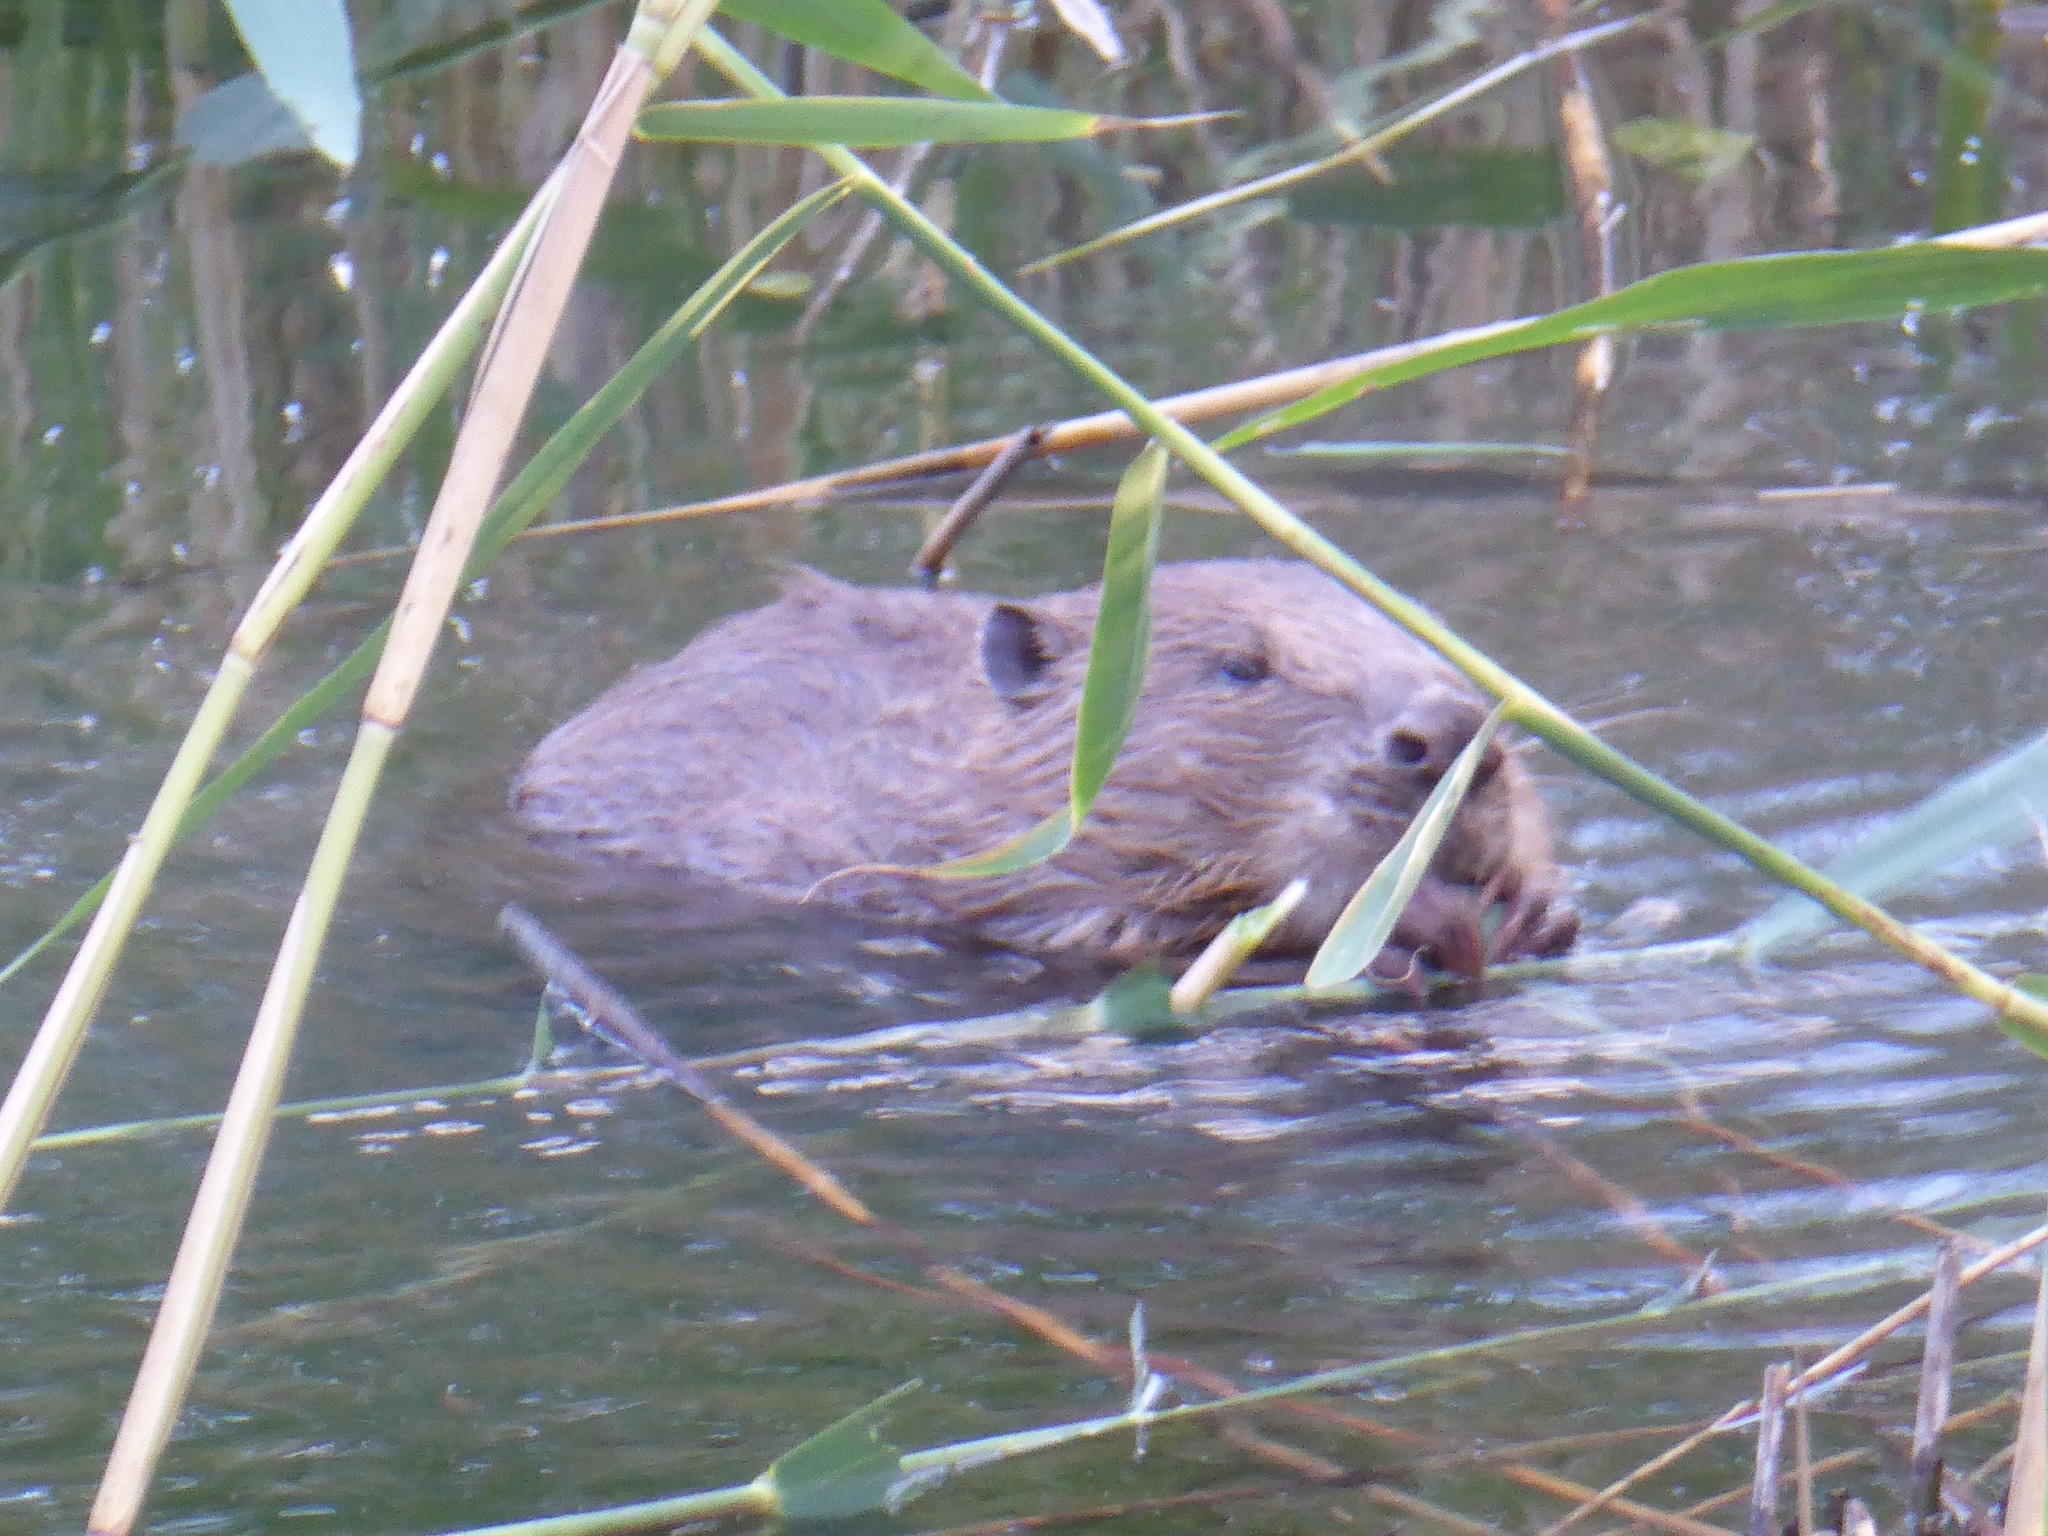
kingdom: Animalia
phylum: Chordata
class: Mammalia
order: Rodentia
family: Castoridae
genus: Castor
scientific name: Castor fiber
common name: Eurasian beaver
